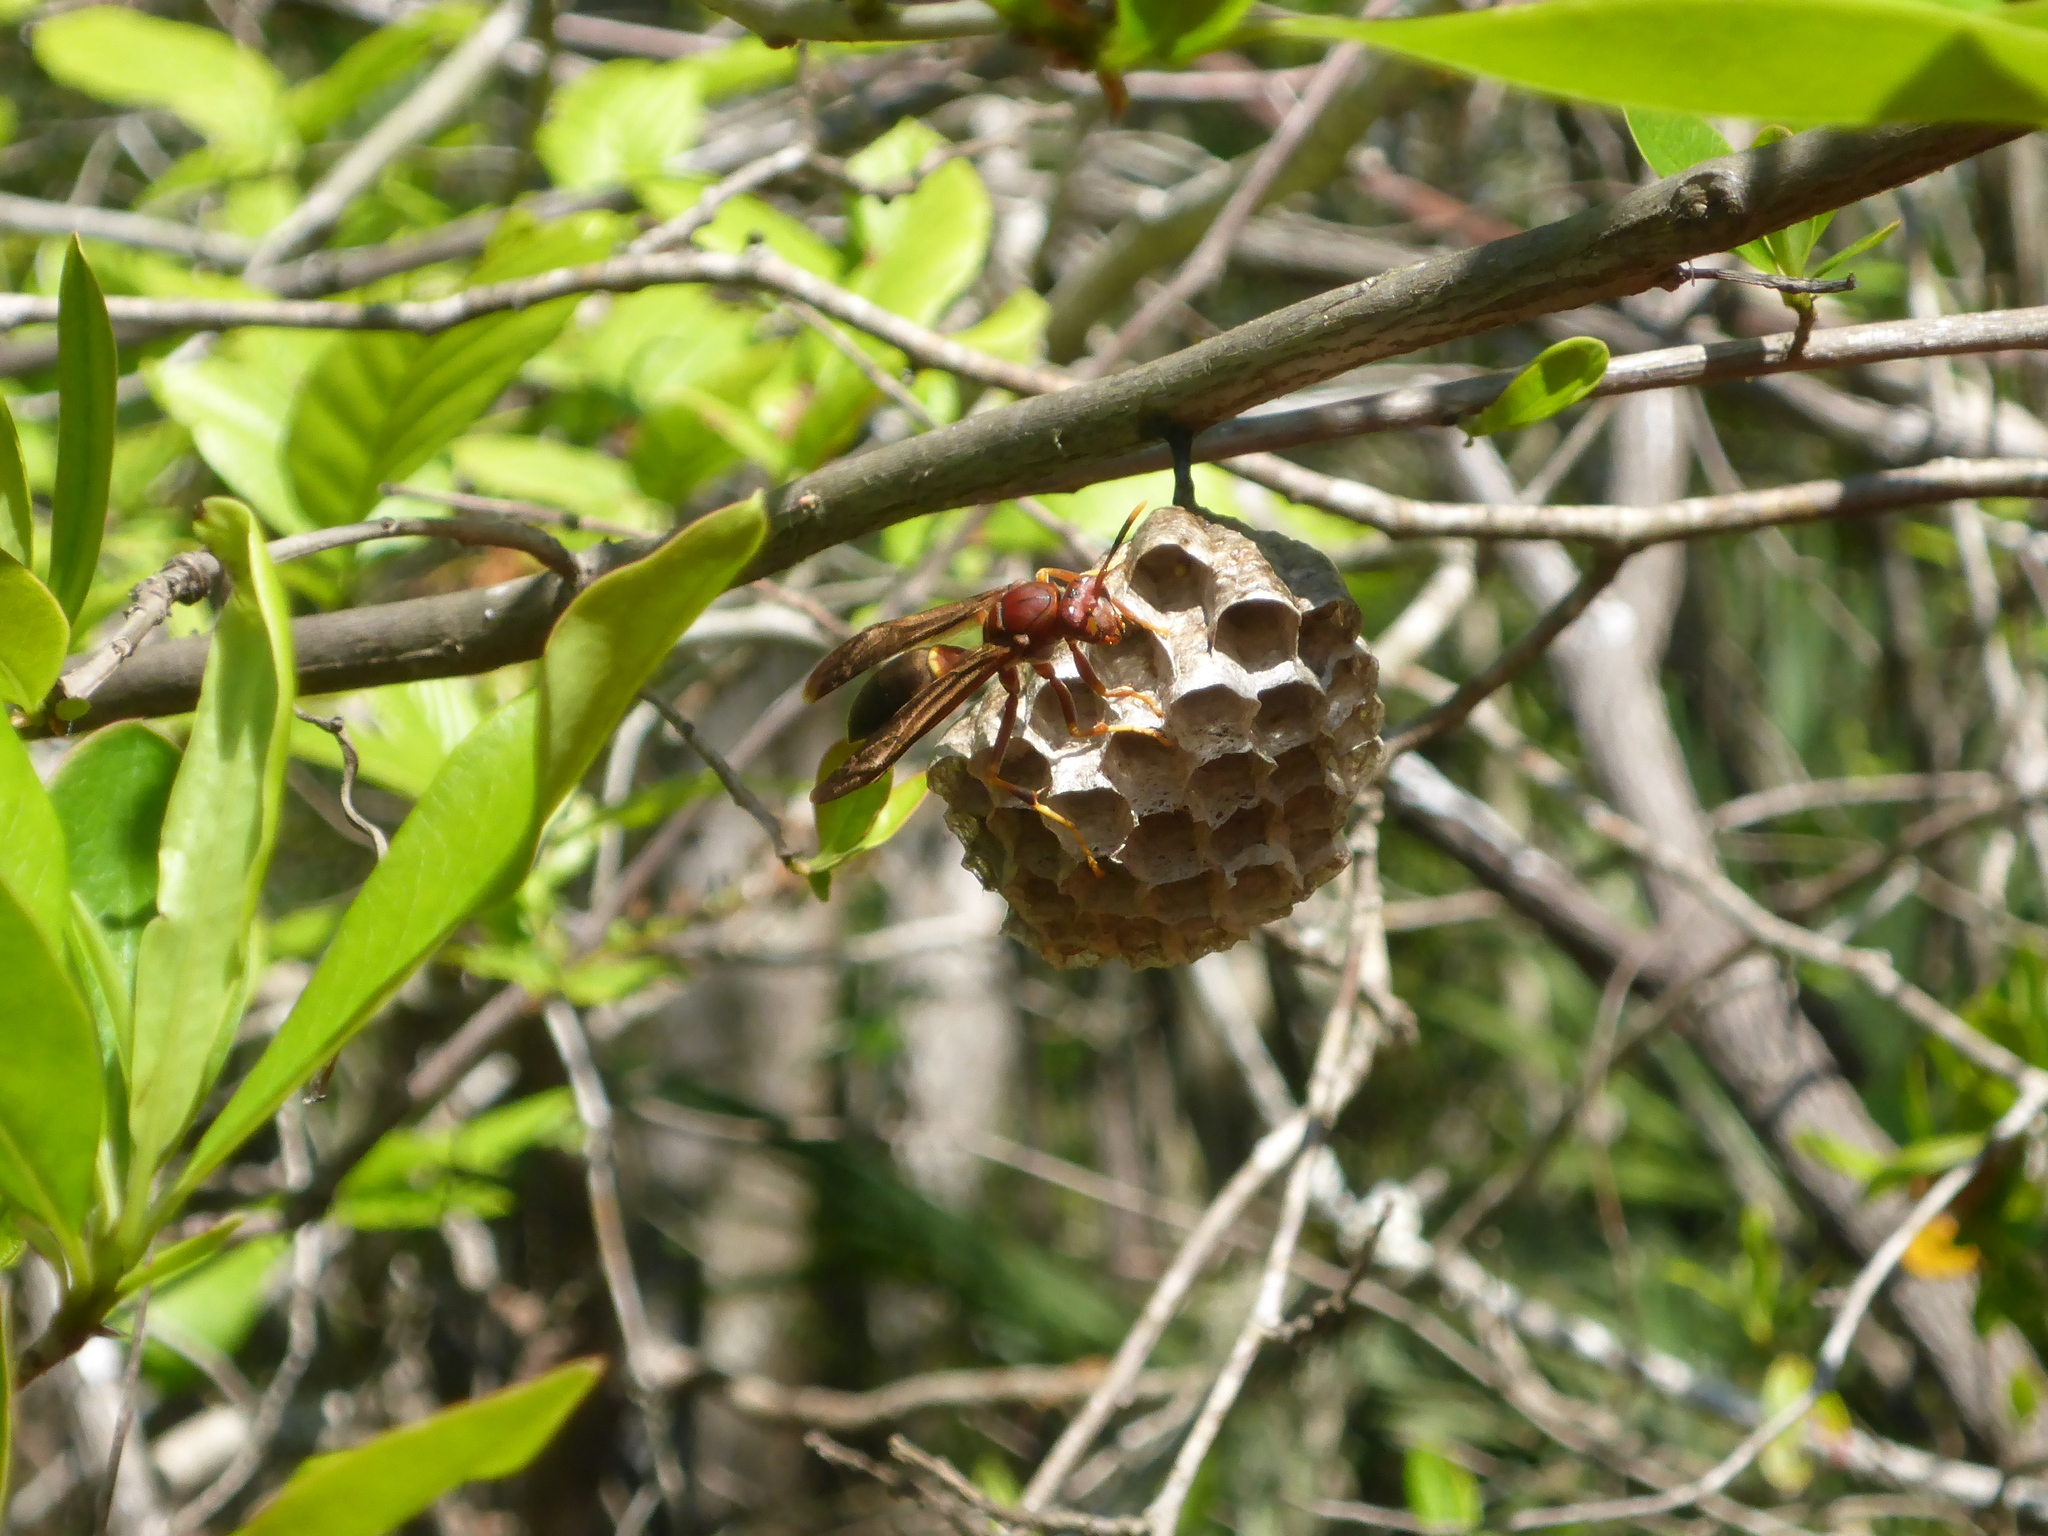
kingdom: Animalia
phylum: Arthropoda
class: Insecta
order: Hymenoptera
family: Eumenidae
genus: Polistes
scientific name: Polistes annularis
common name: Ringed paper wasp
